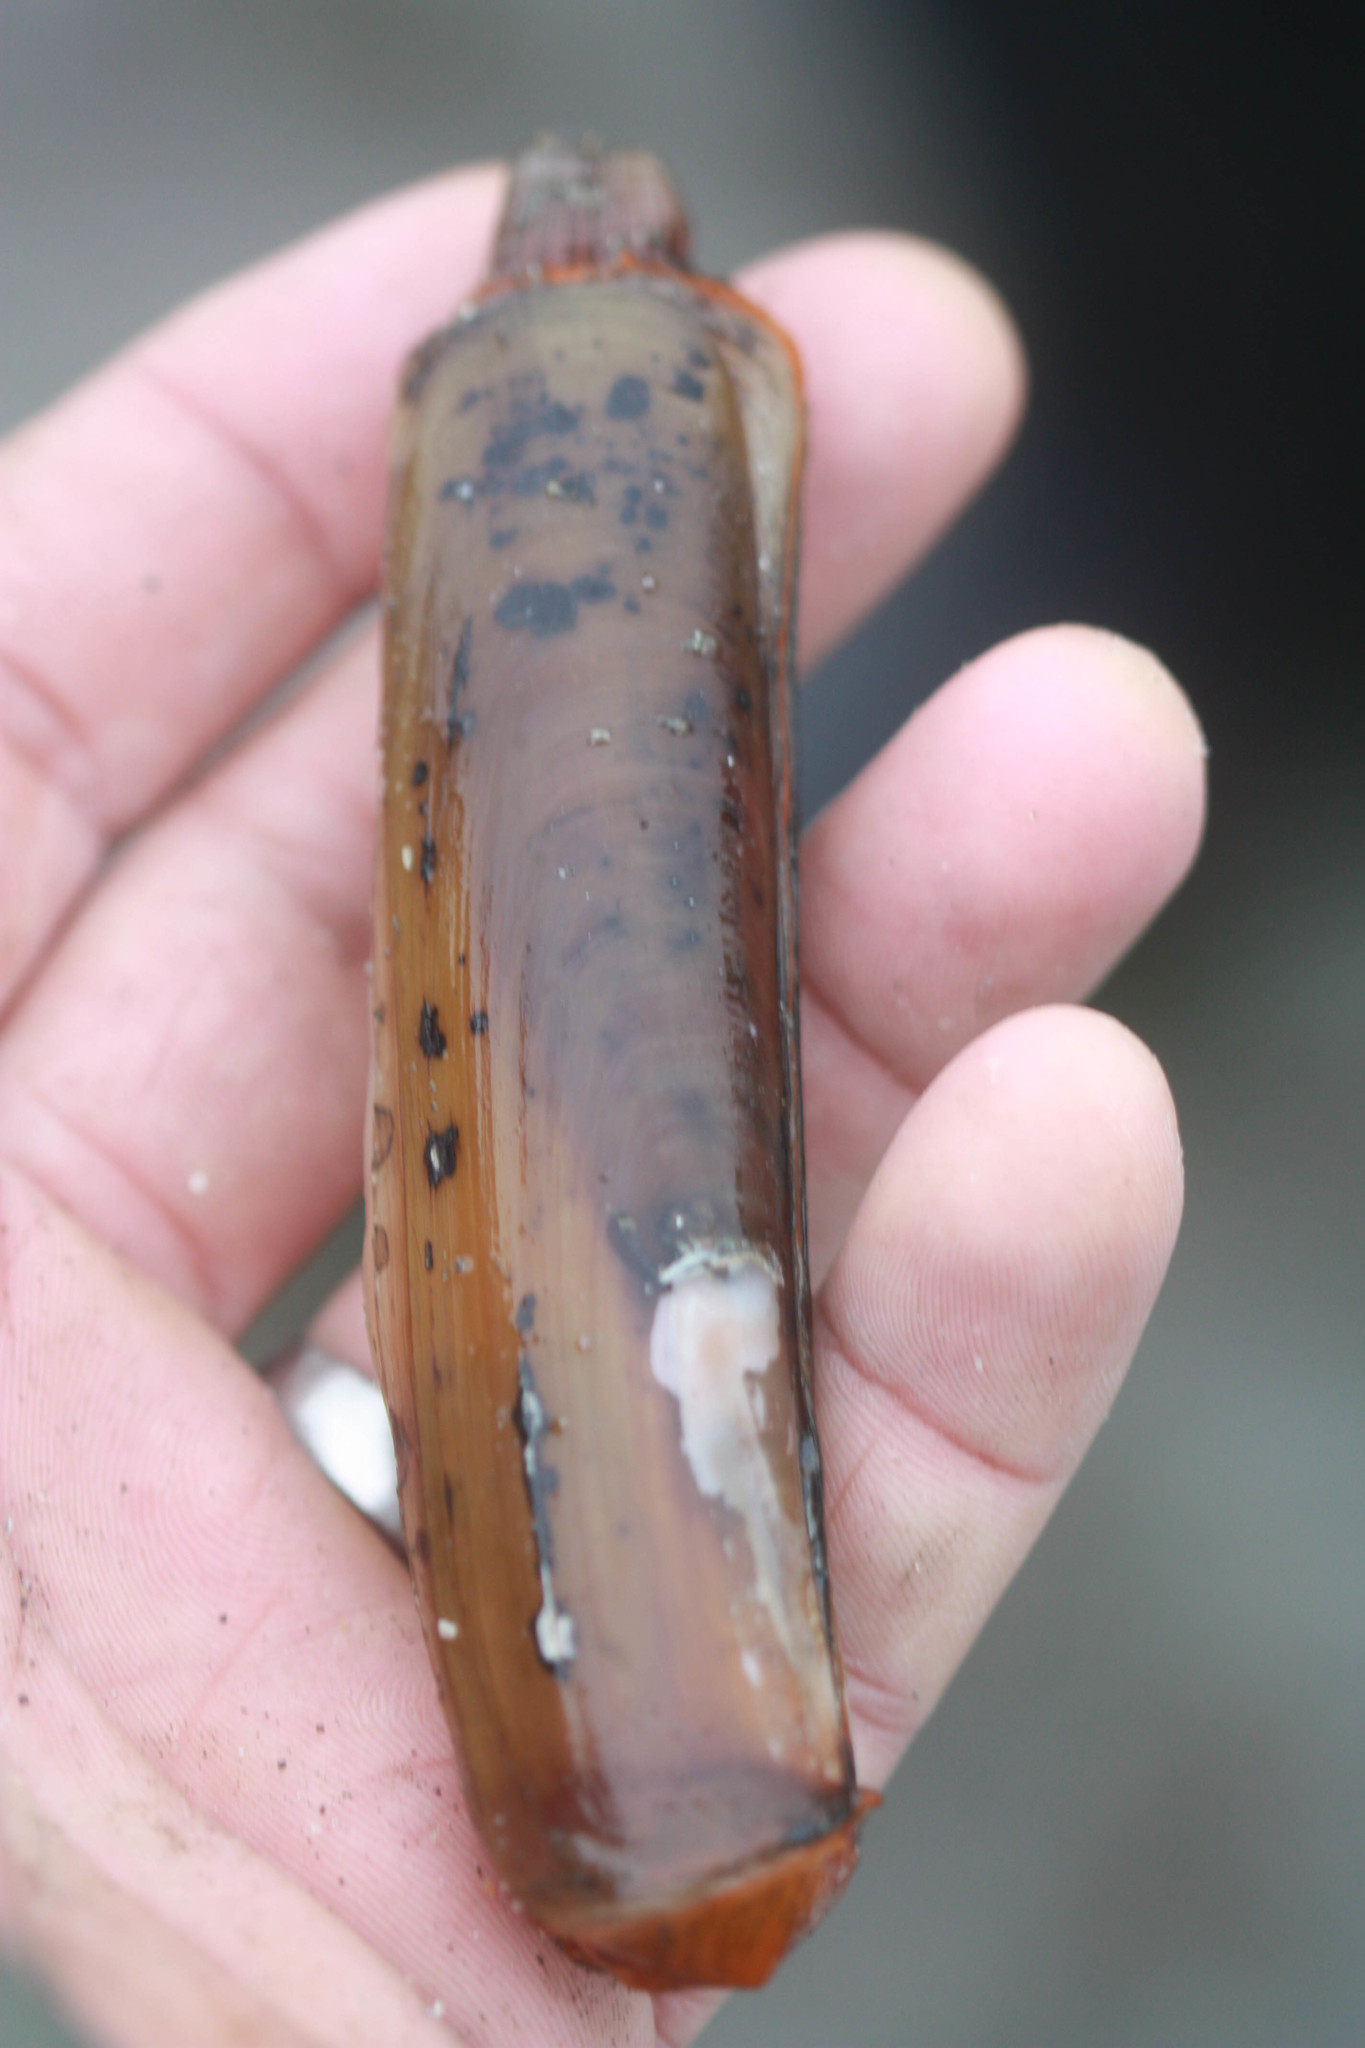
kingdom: Animalia
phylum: Mollusca
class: Bivalvia
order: Adapedonta
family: Solenidae
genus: Solen
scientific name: Solen sicarius
